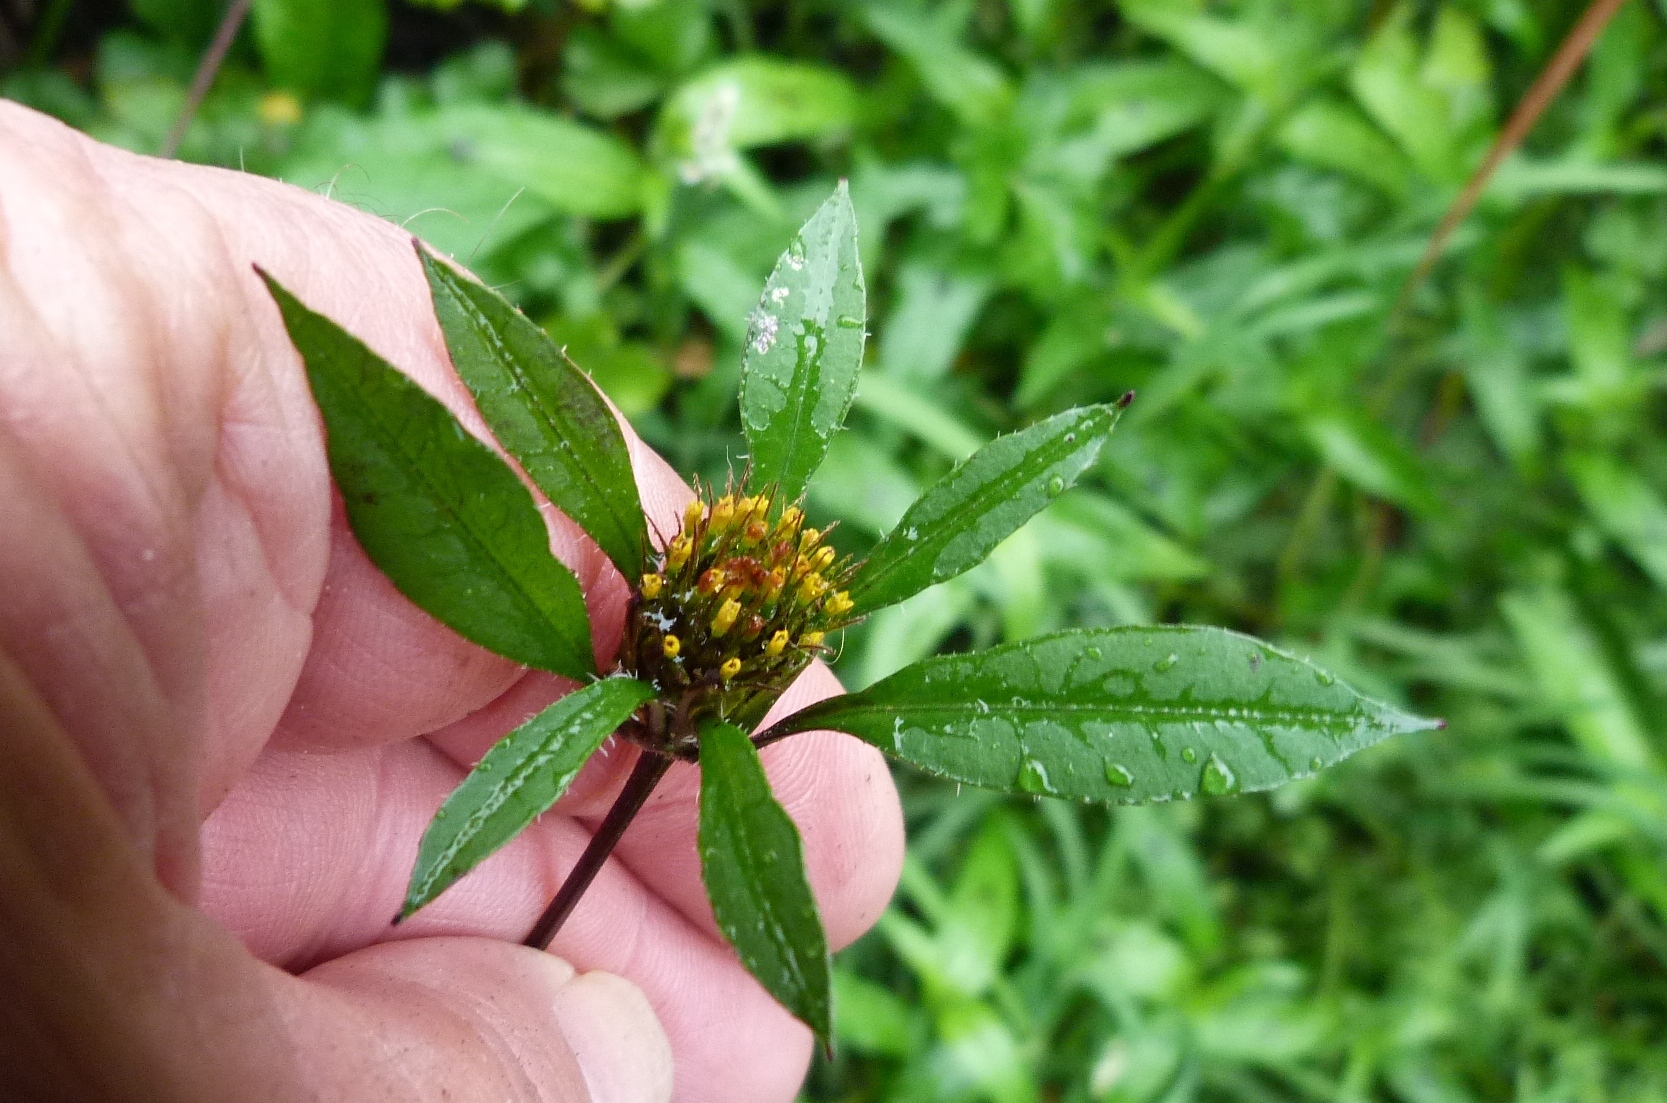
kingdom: Plantae
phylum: Tracheophyta
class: Magnoliopsida
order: Asterales
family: Asteraceae
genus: Bidens
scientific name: Bidens frondosa
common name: Beggarticks
